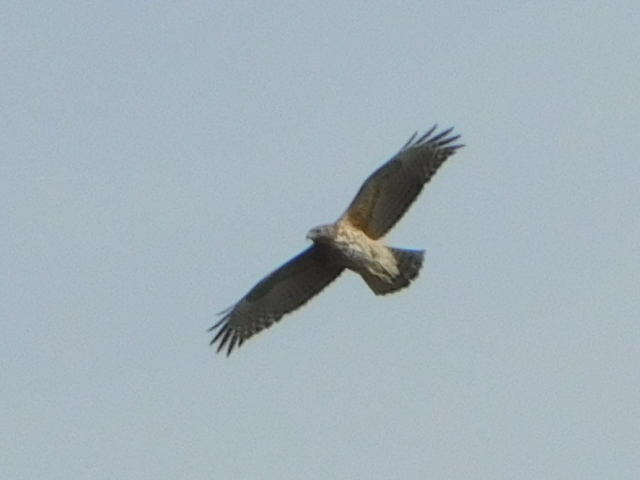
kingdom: Animalia
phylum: Chordata
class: Aves
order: Accipitriformes
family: Accipitridae
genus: Buteo
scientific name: Buteo lineatus
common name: Red-shouldered hawk
